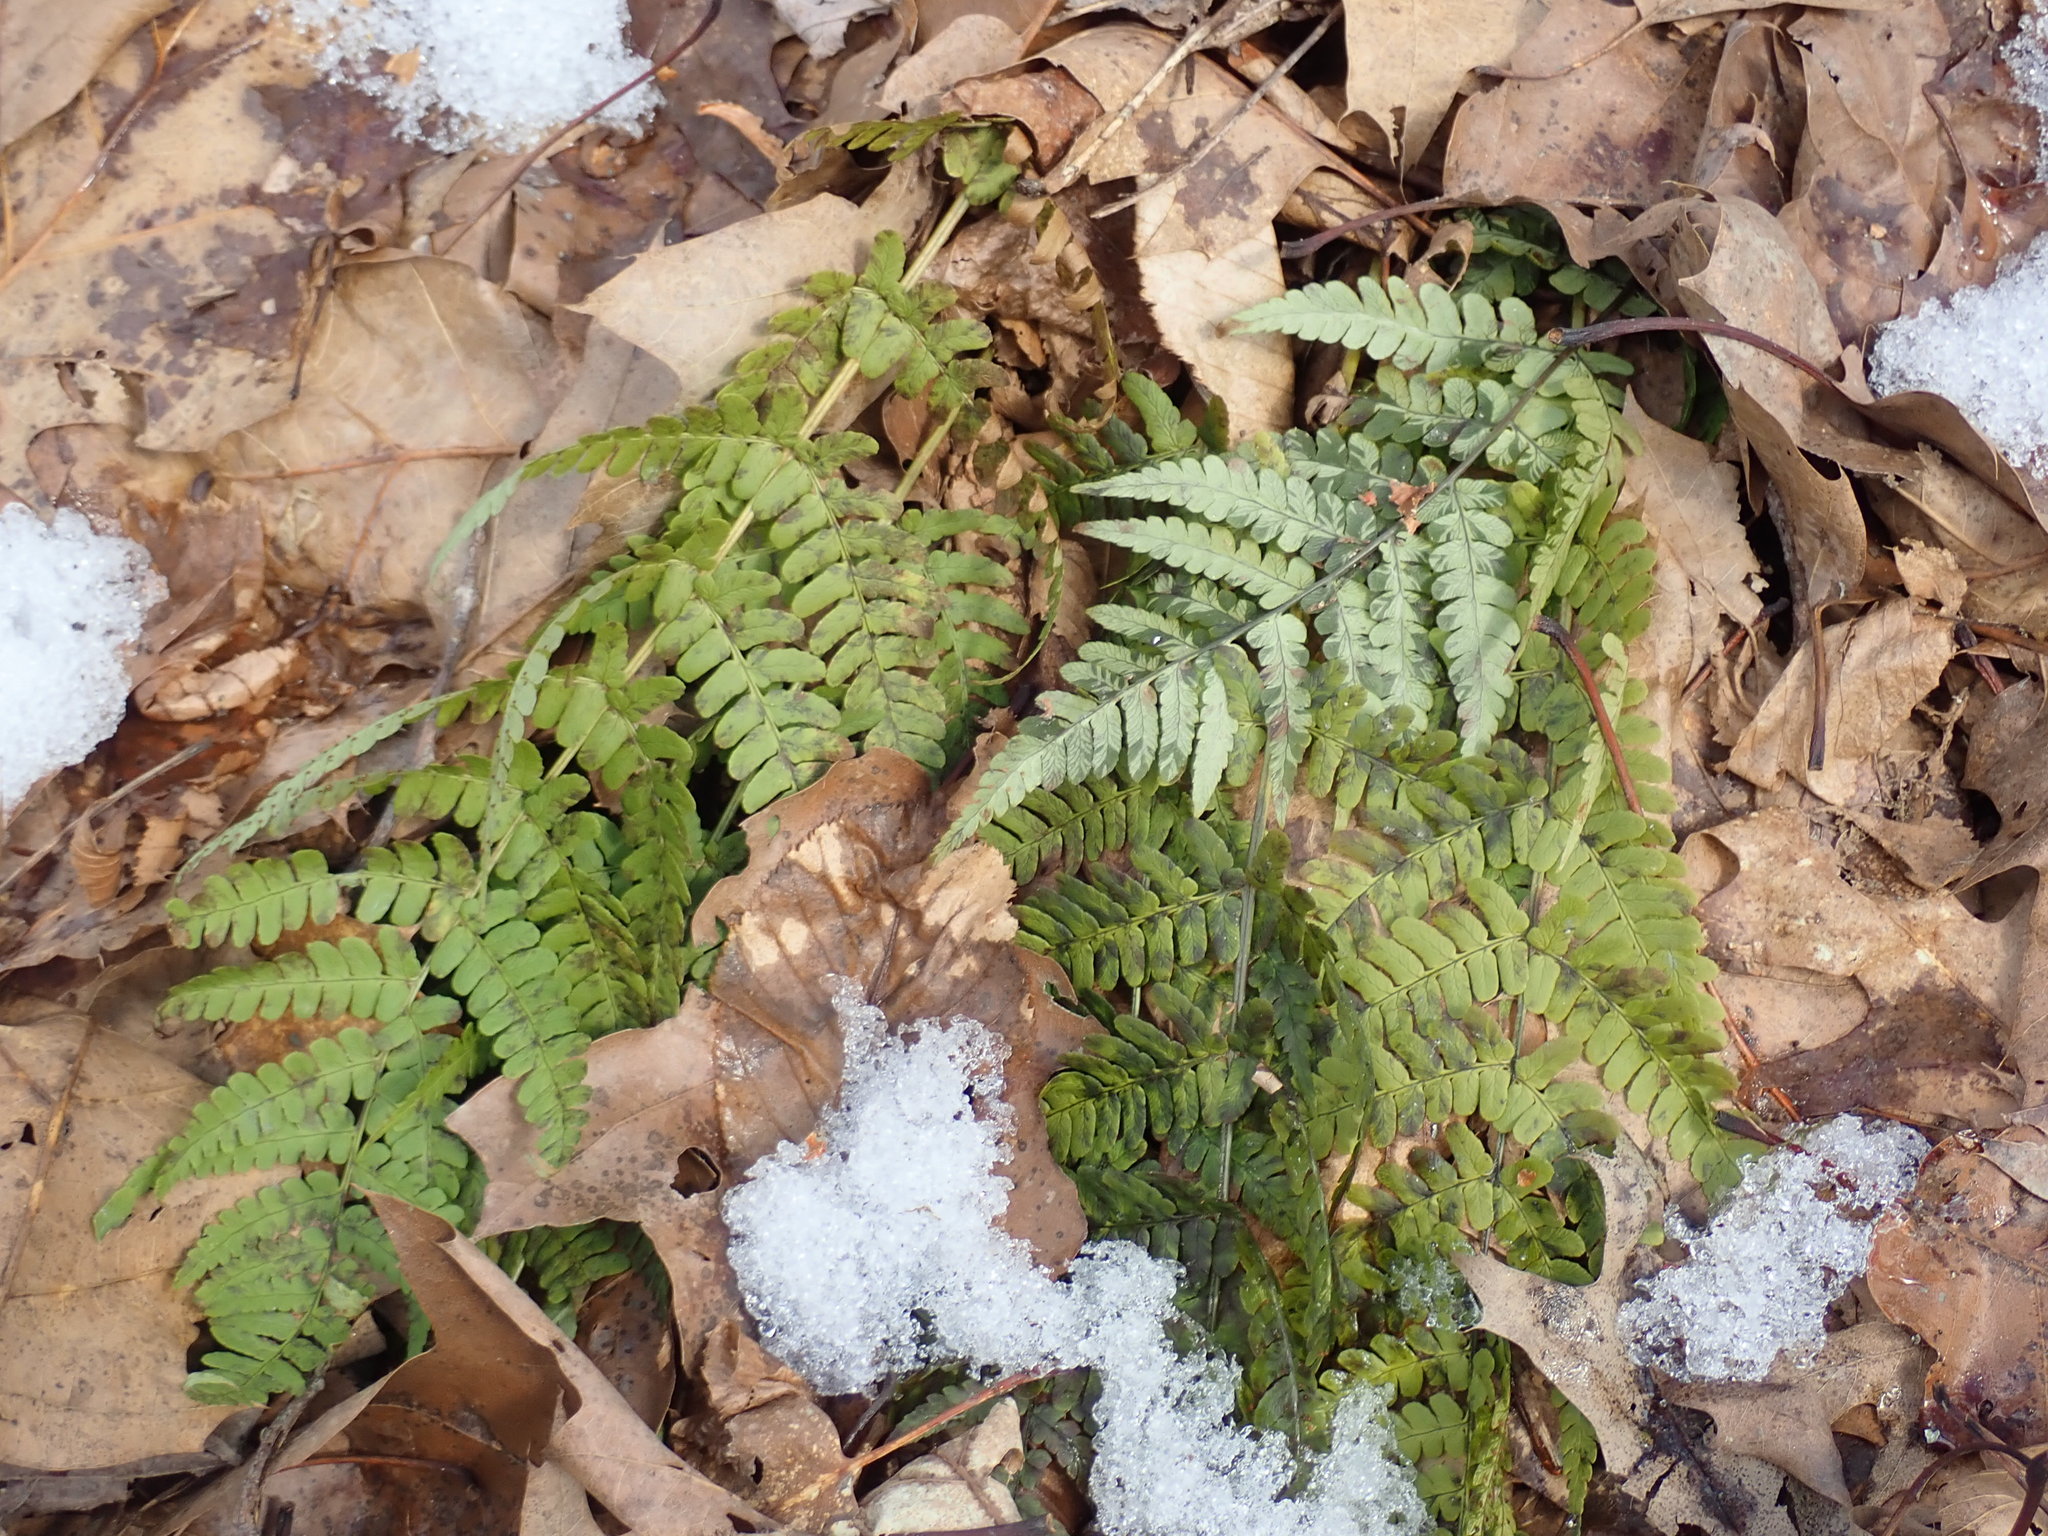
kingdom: Plantae
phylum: Tracheophyta
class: Polypodiopsida
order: Polypodiales
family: Dryopteridaceae
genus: Dryopteris
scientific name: Dryopteris marginalis
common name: Marginal wood fern
